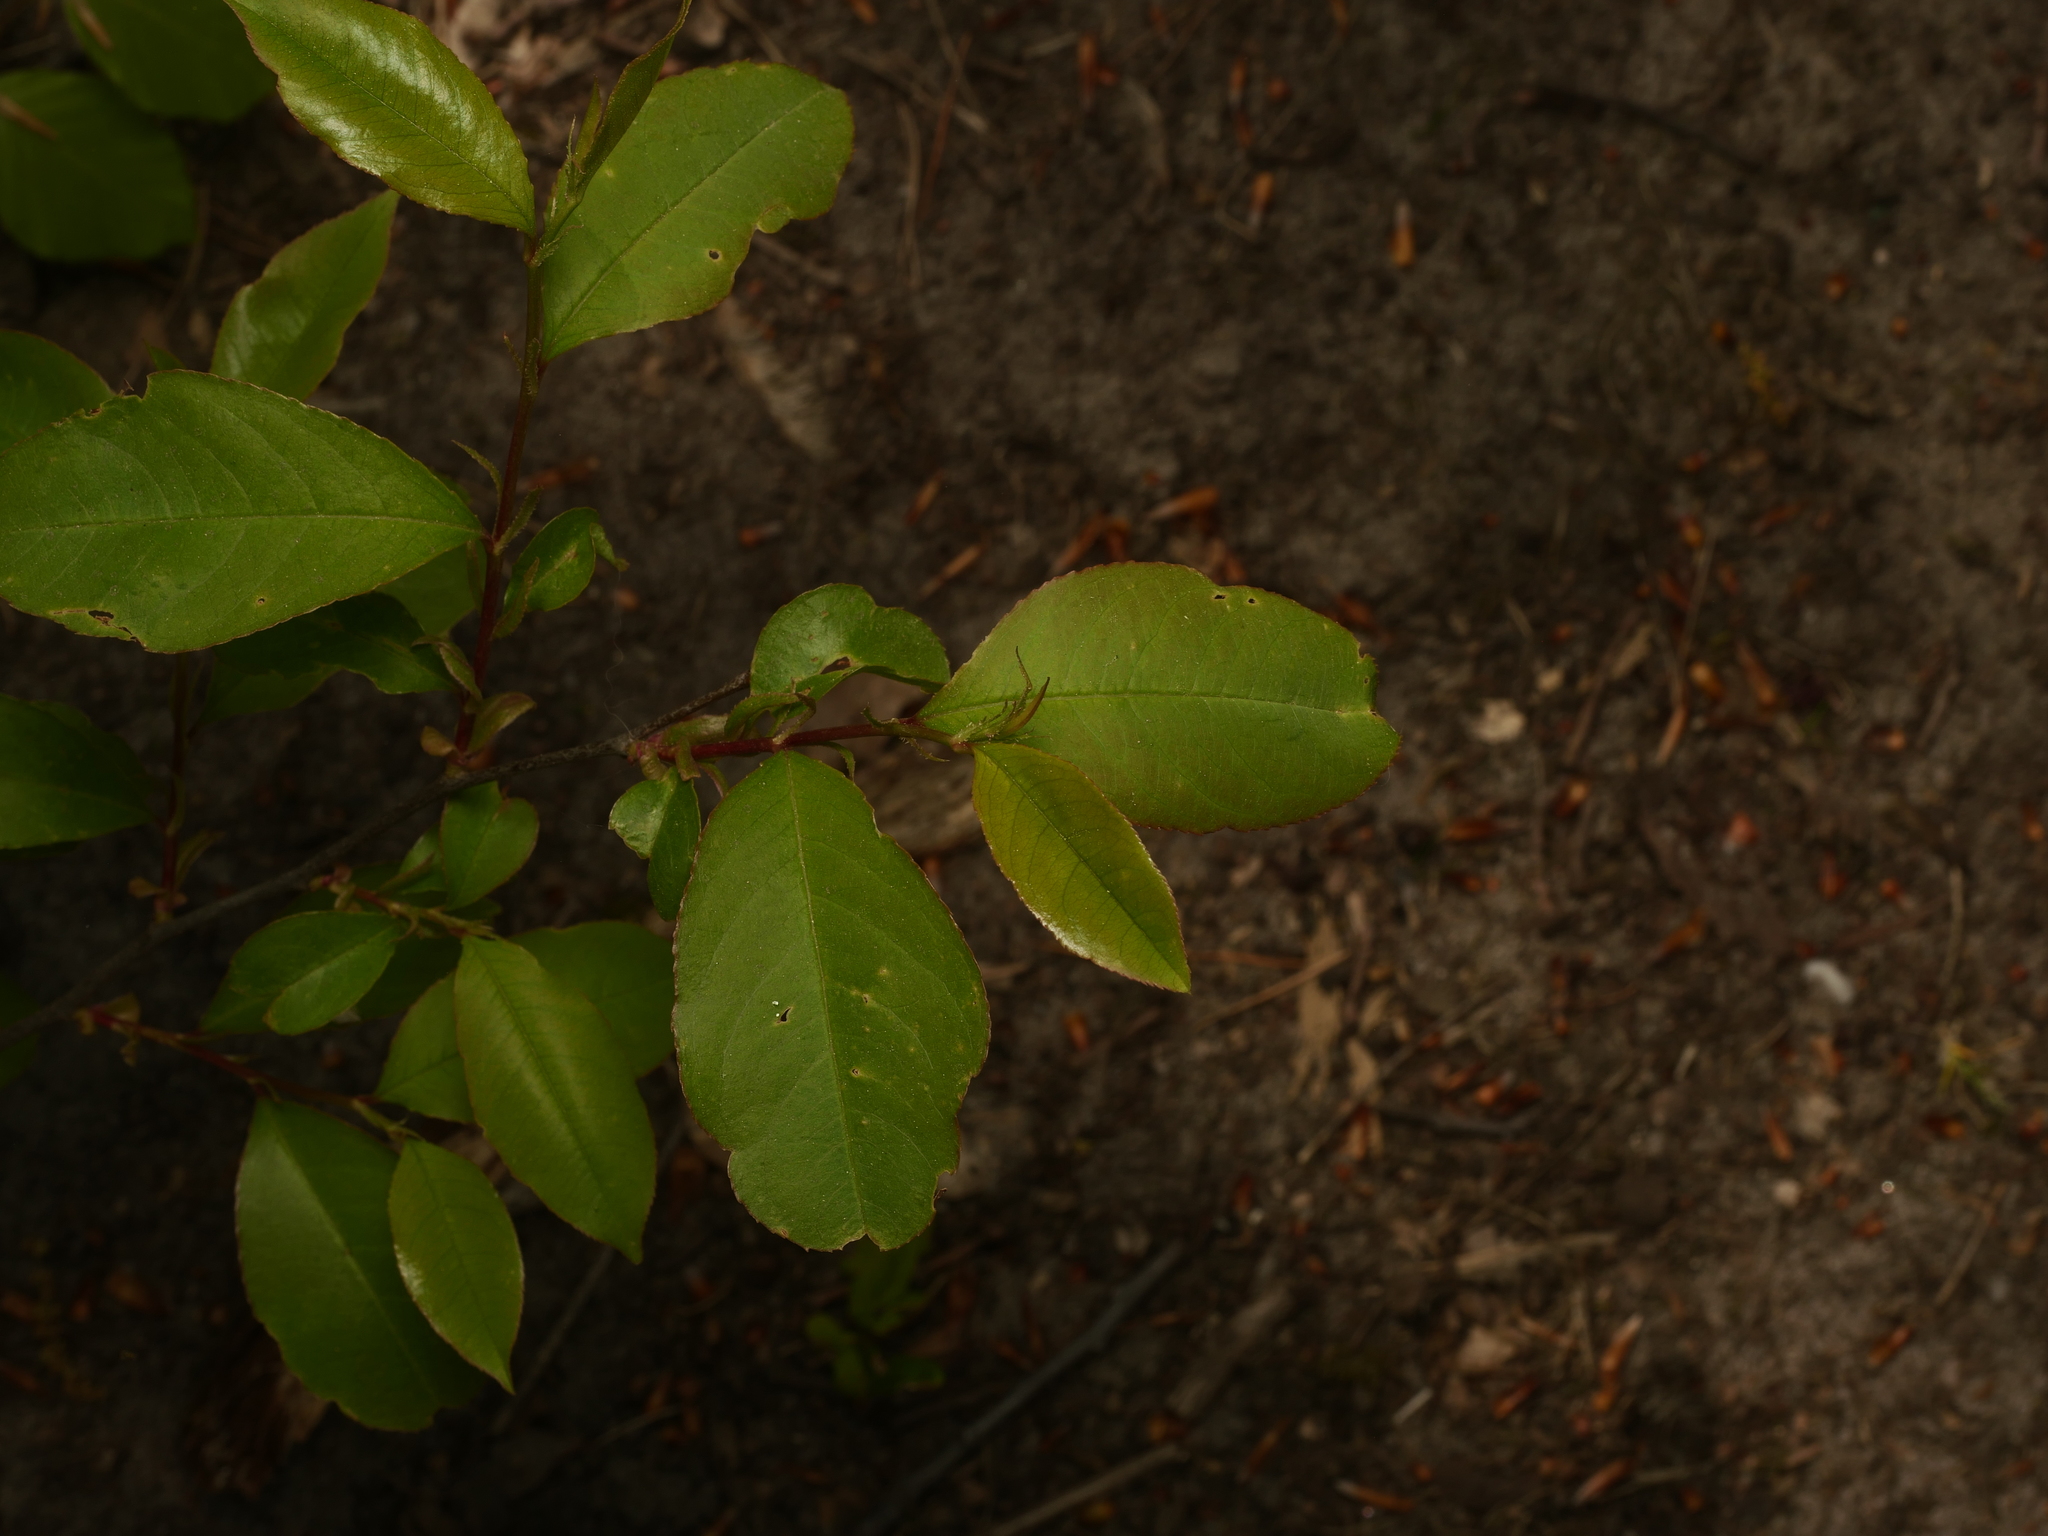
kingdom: Plantae
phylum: Tracheophyta
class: Magnoliopsida
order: Rosales
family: Rosaceae
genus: Prunus
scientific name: Prunus serotina
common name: Black cherry
